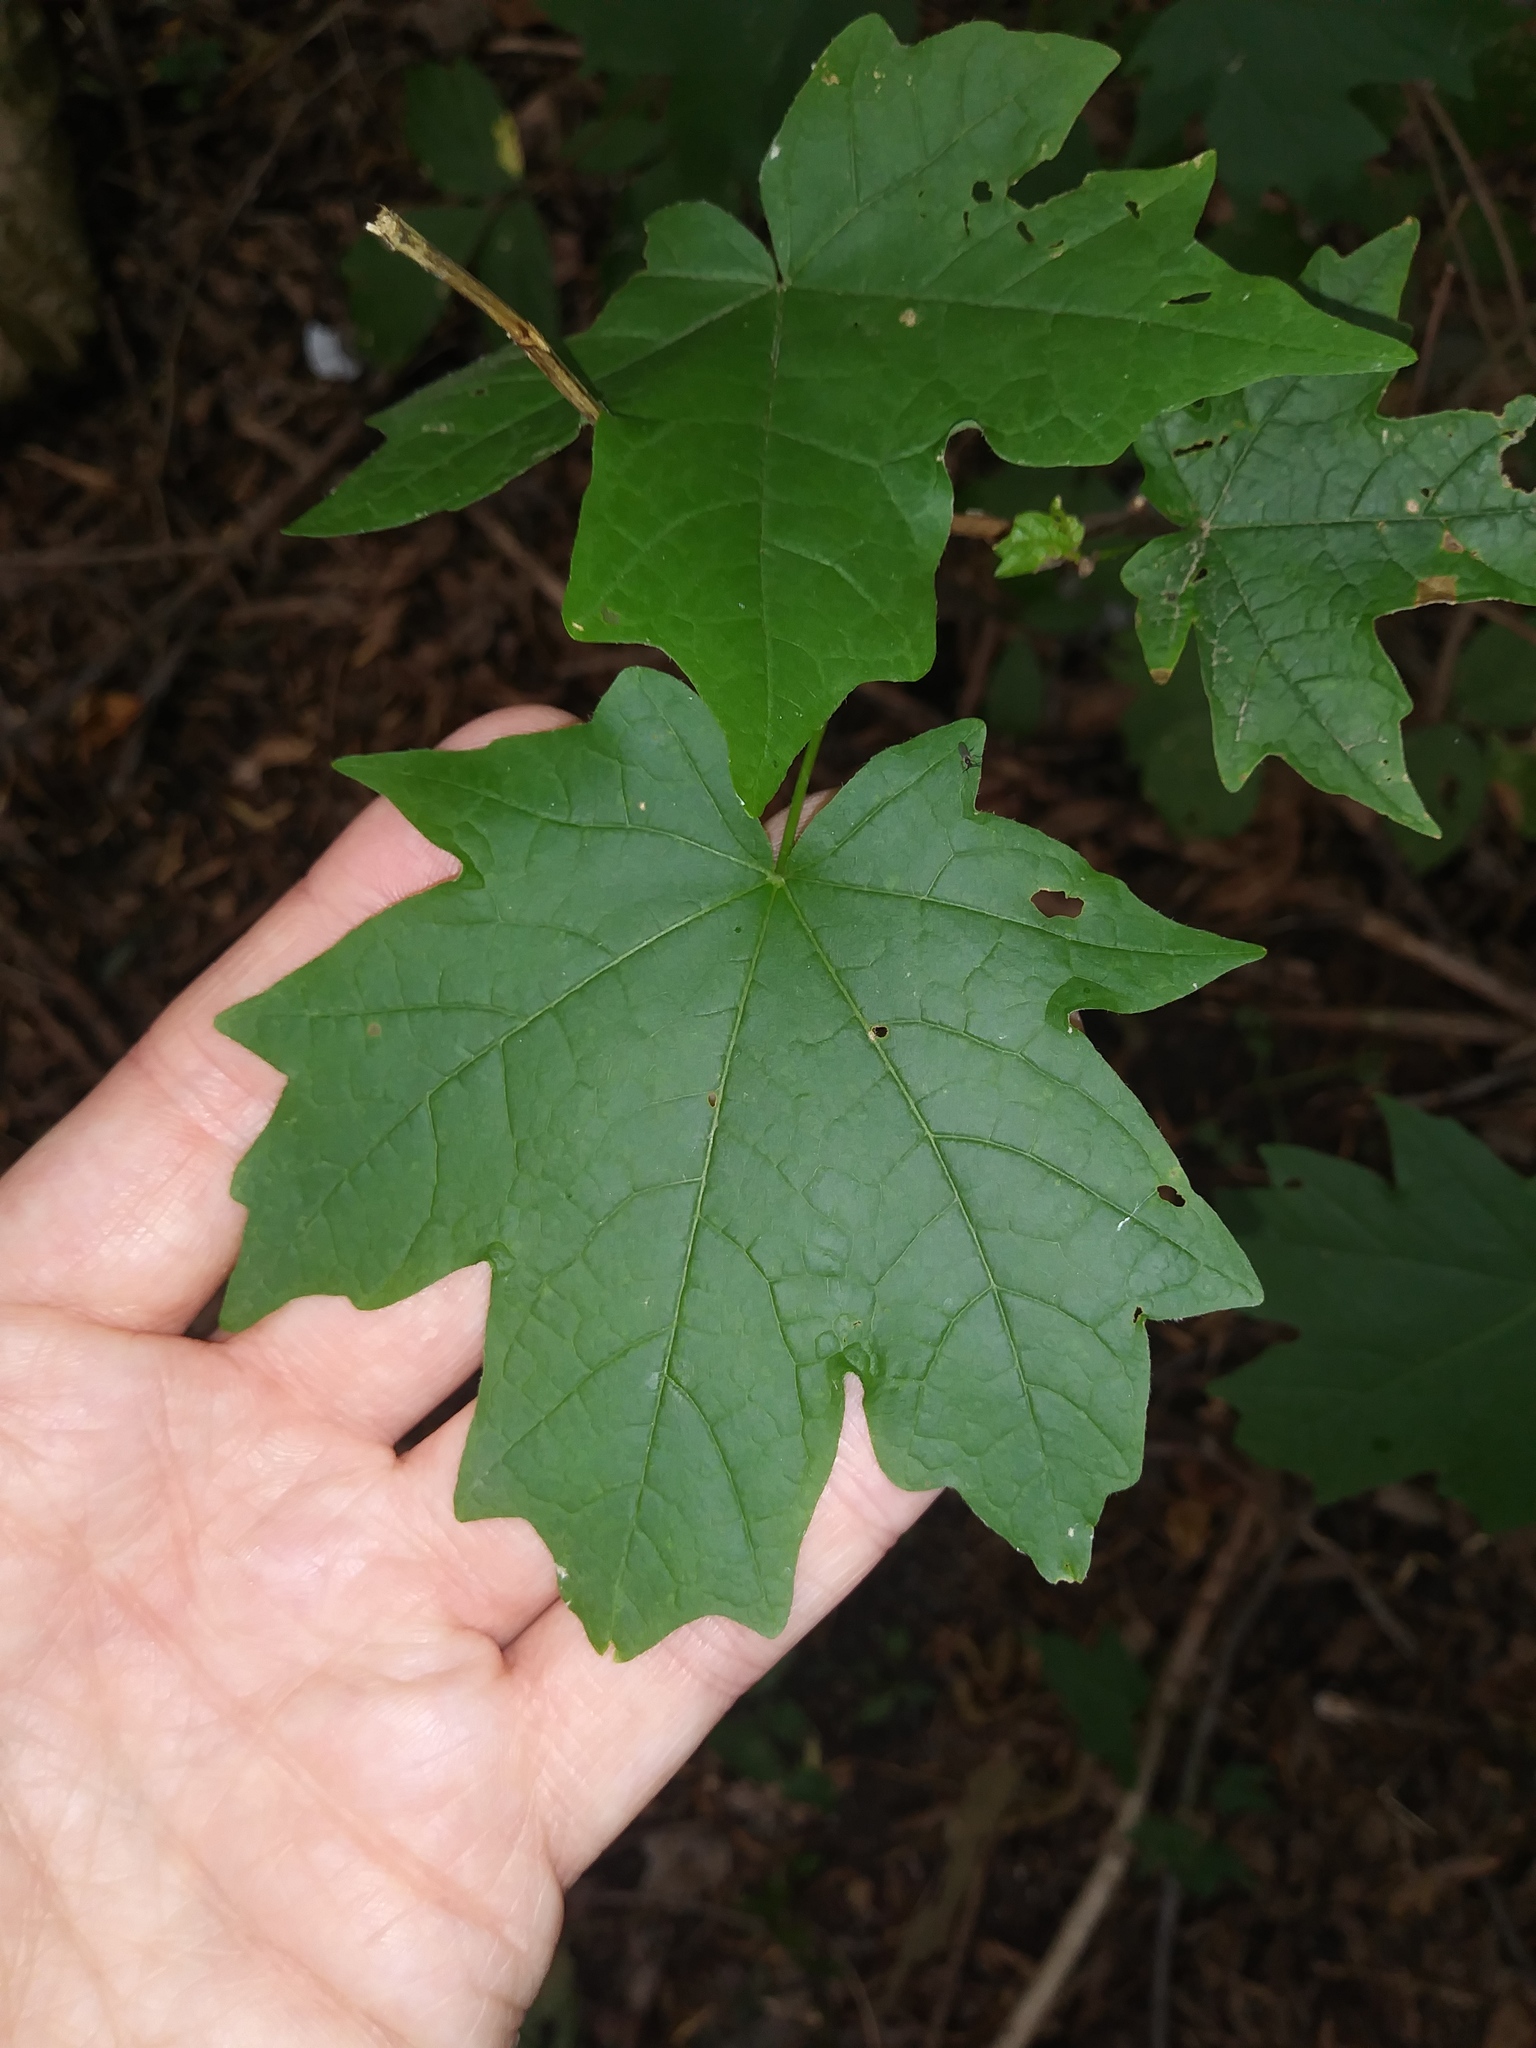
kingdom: Plantae
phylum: Tracheophyta
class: Magnoliopsida
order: Sapindales
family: Sapindaceae
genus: Acer
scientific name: Acer floridanum
